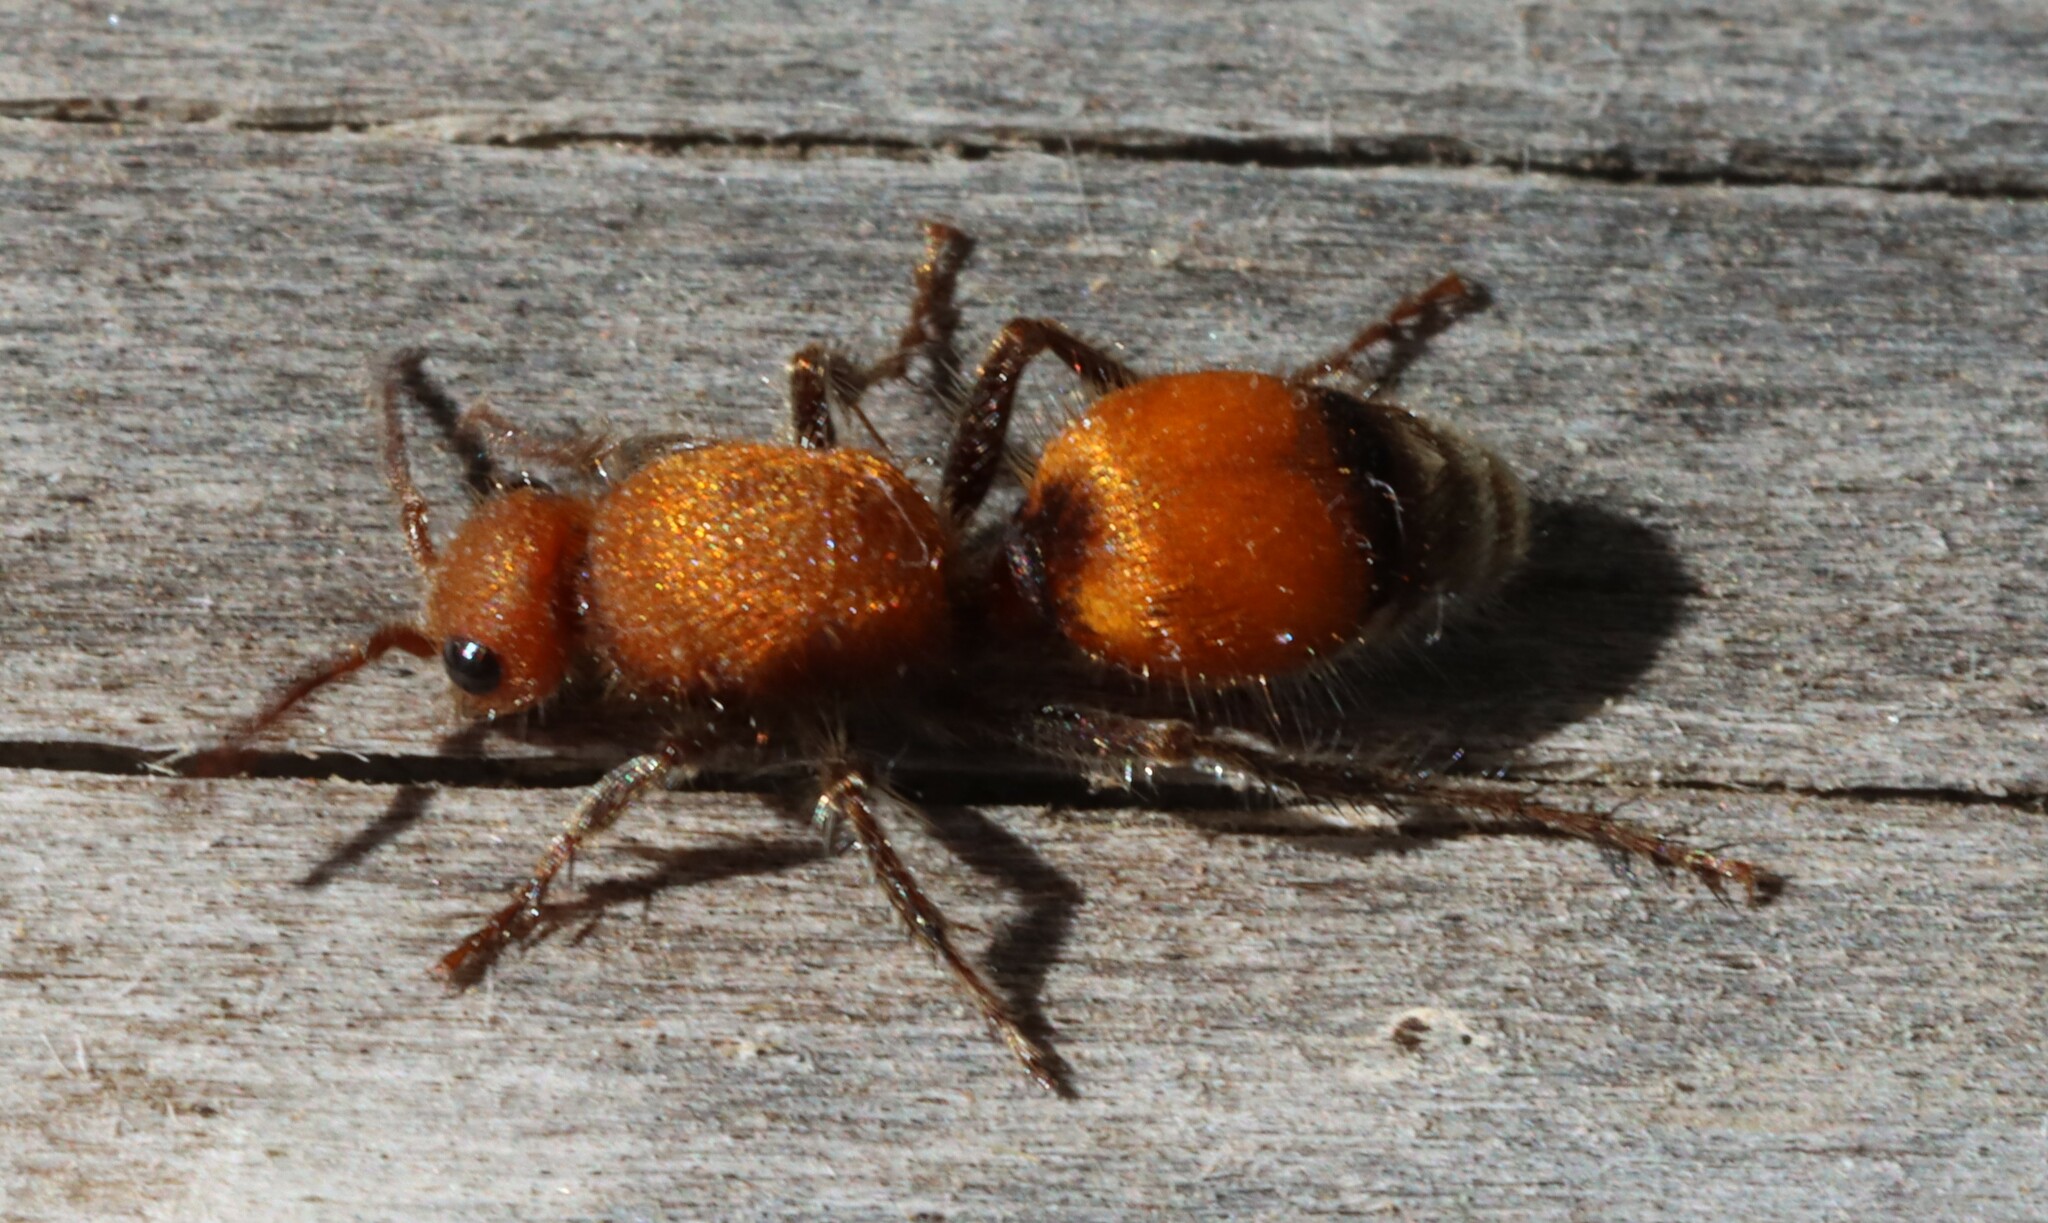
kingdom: Animalia
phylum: Arthropoda
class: Insecta
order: Hymenoptera
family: Mutillidae
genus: Dasymutilla
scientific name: Dasymutilla
